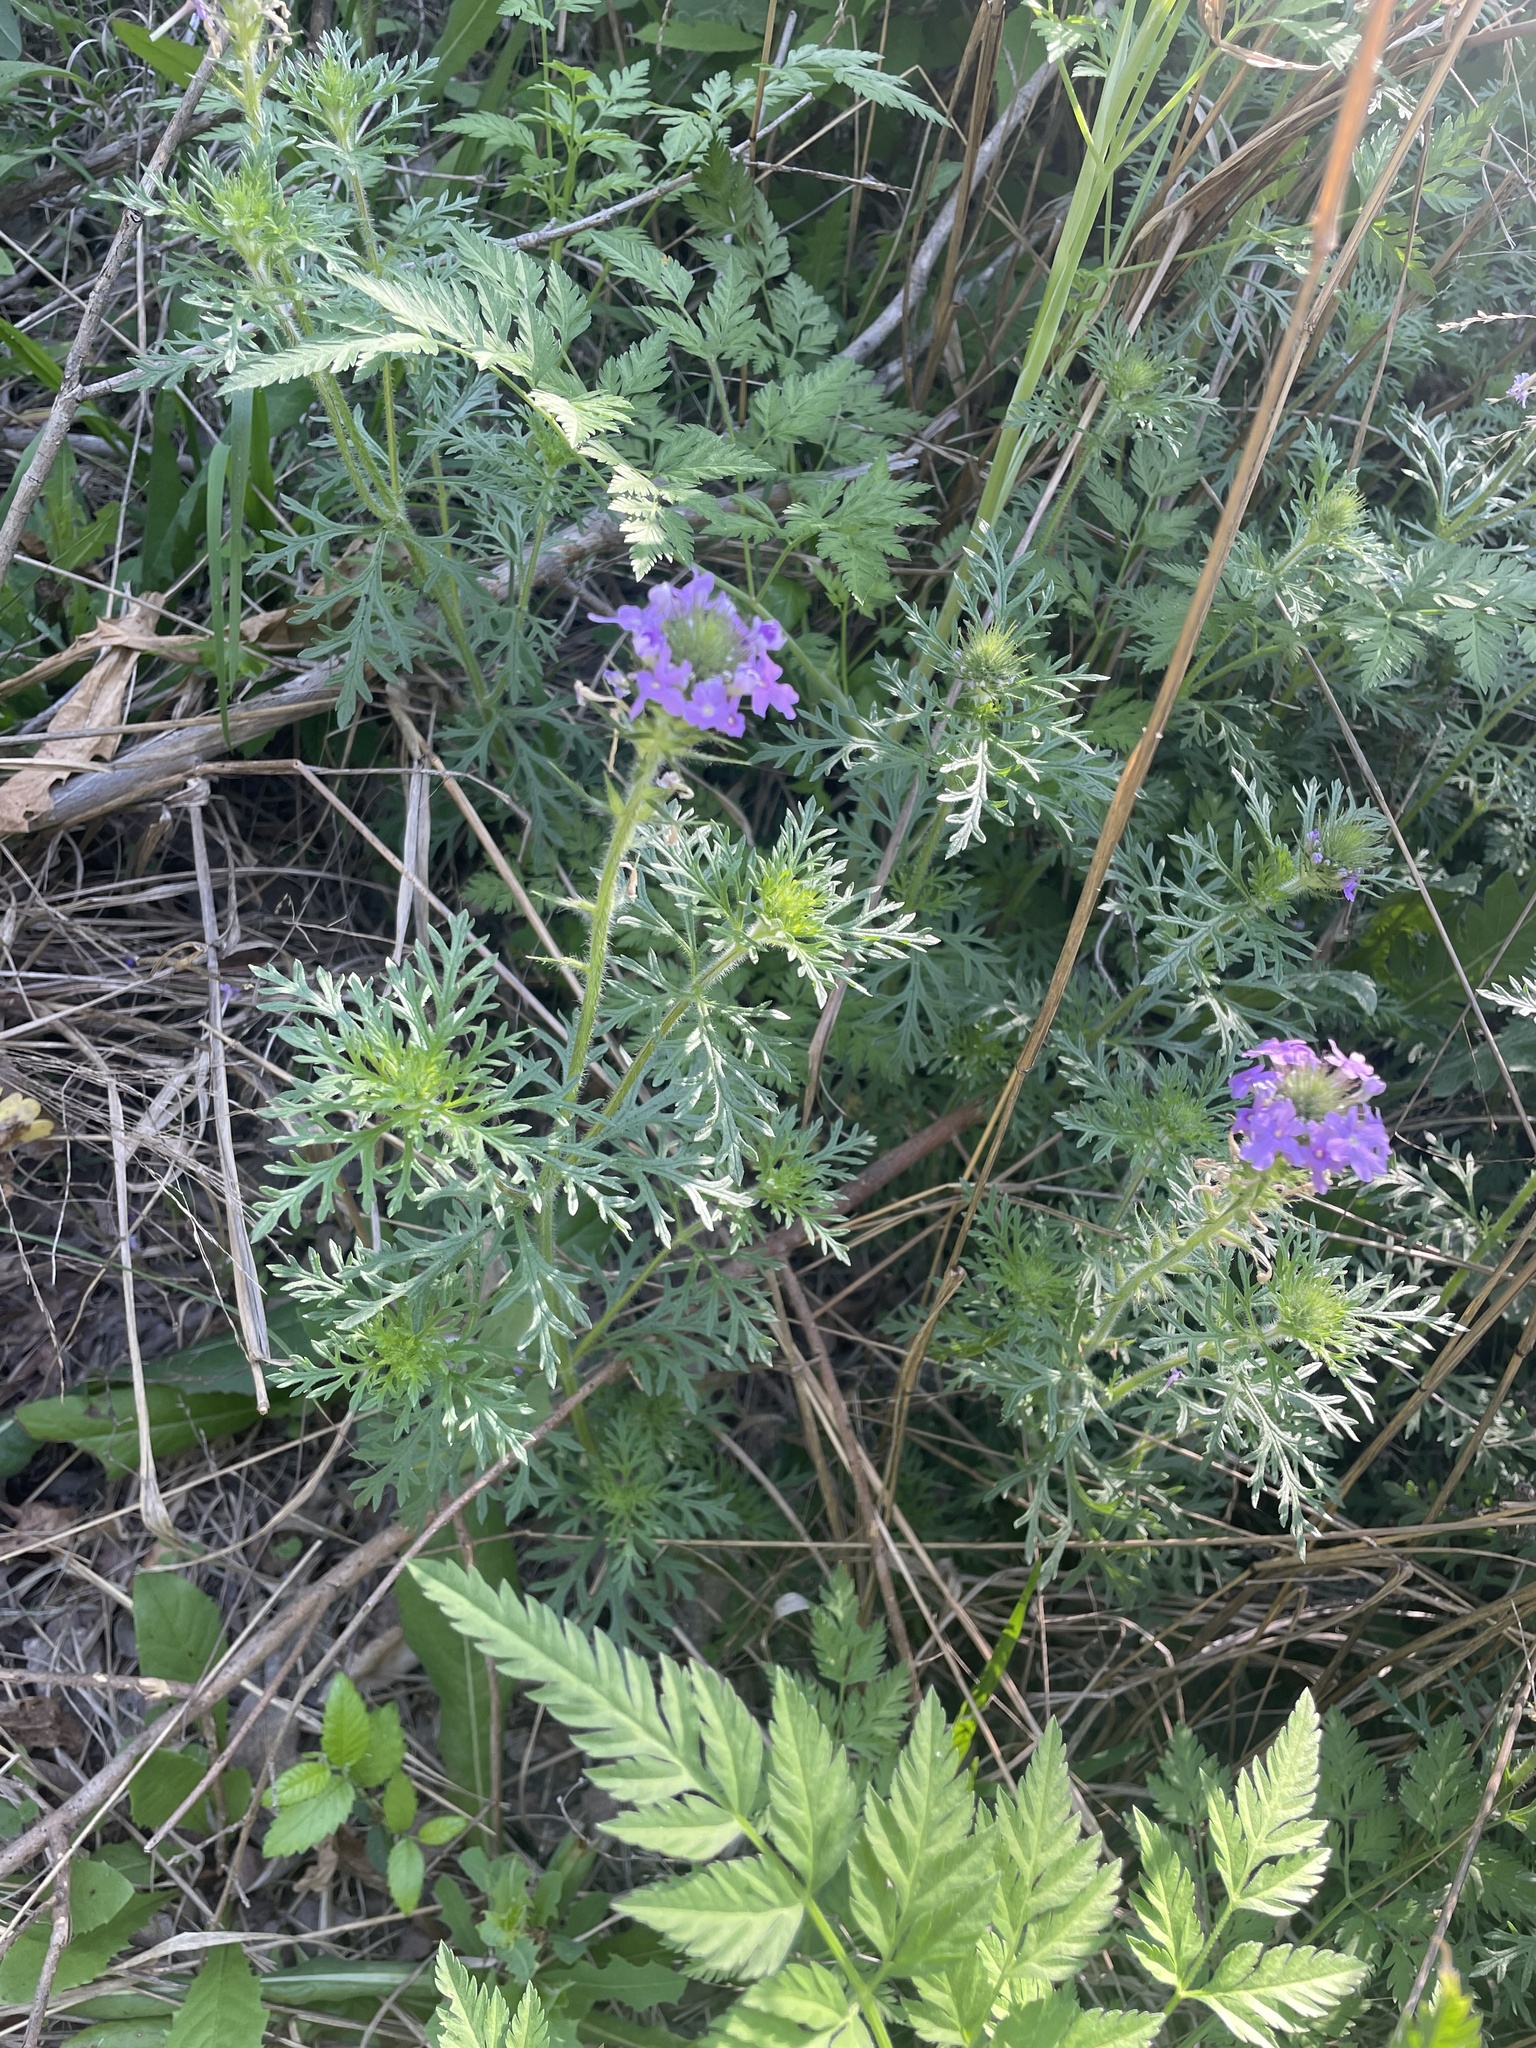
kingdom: Plantae
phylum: Tracheophyta
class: Magnoliopsida
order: Lamiales
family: Verbenaceae
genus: Verbena
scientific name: Verbena bipinnatifida
